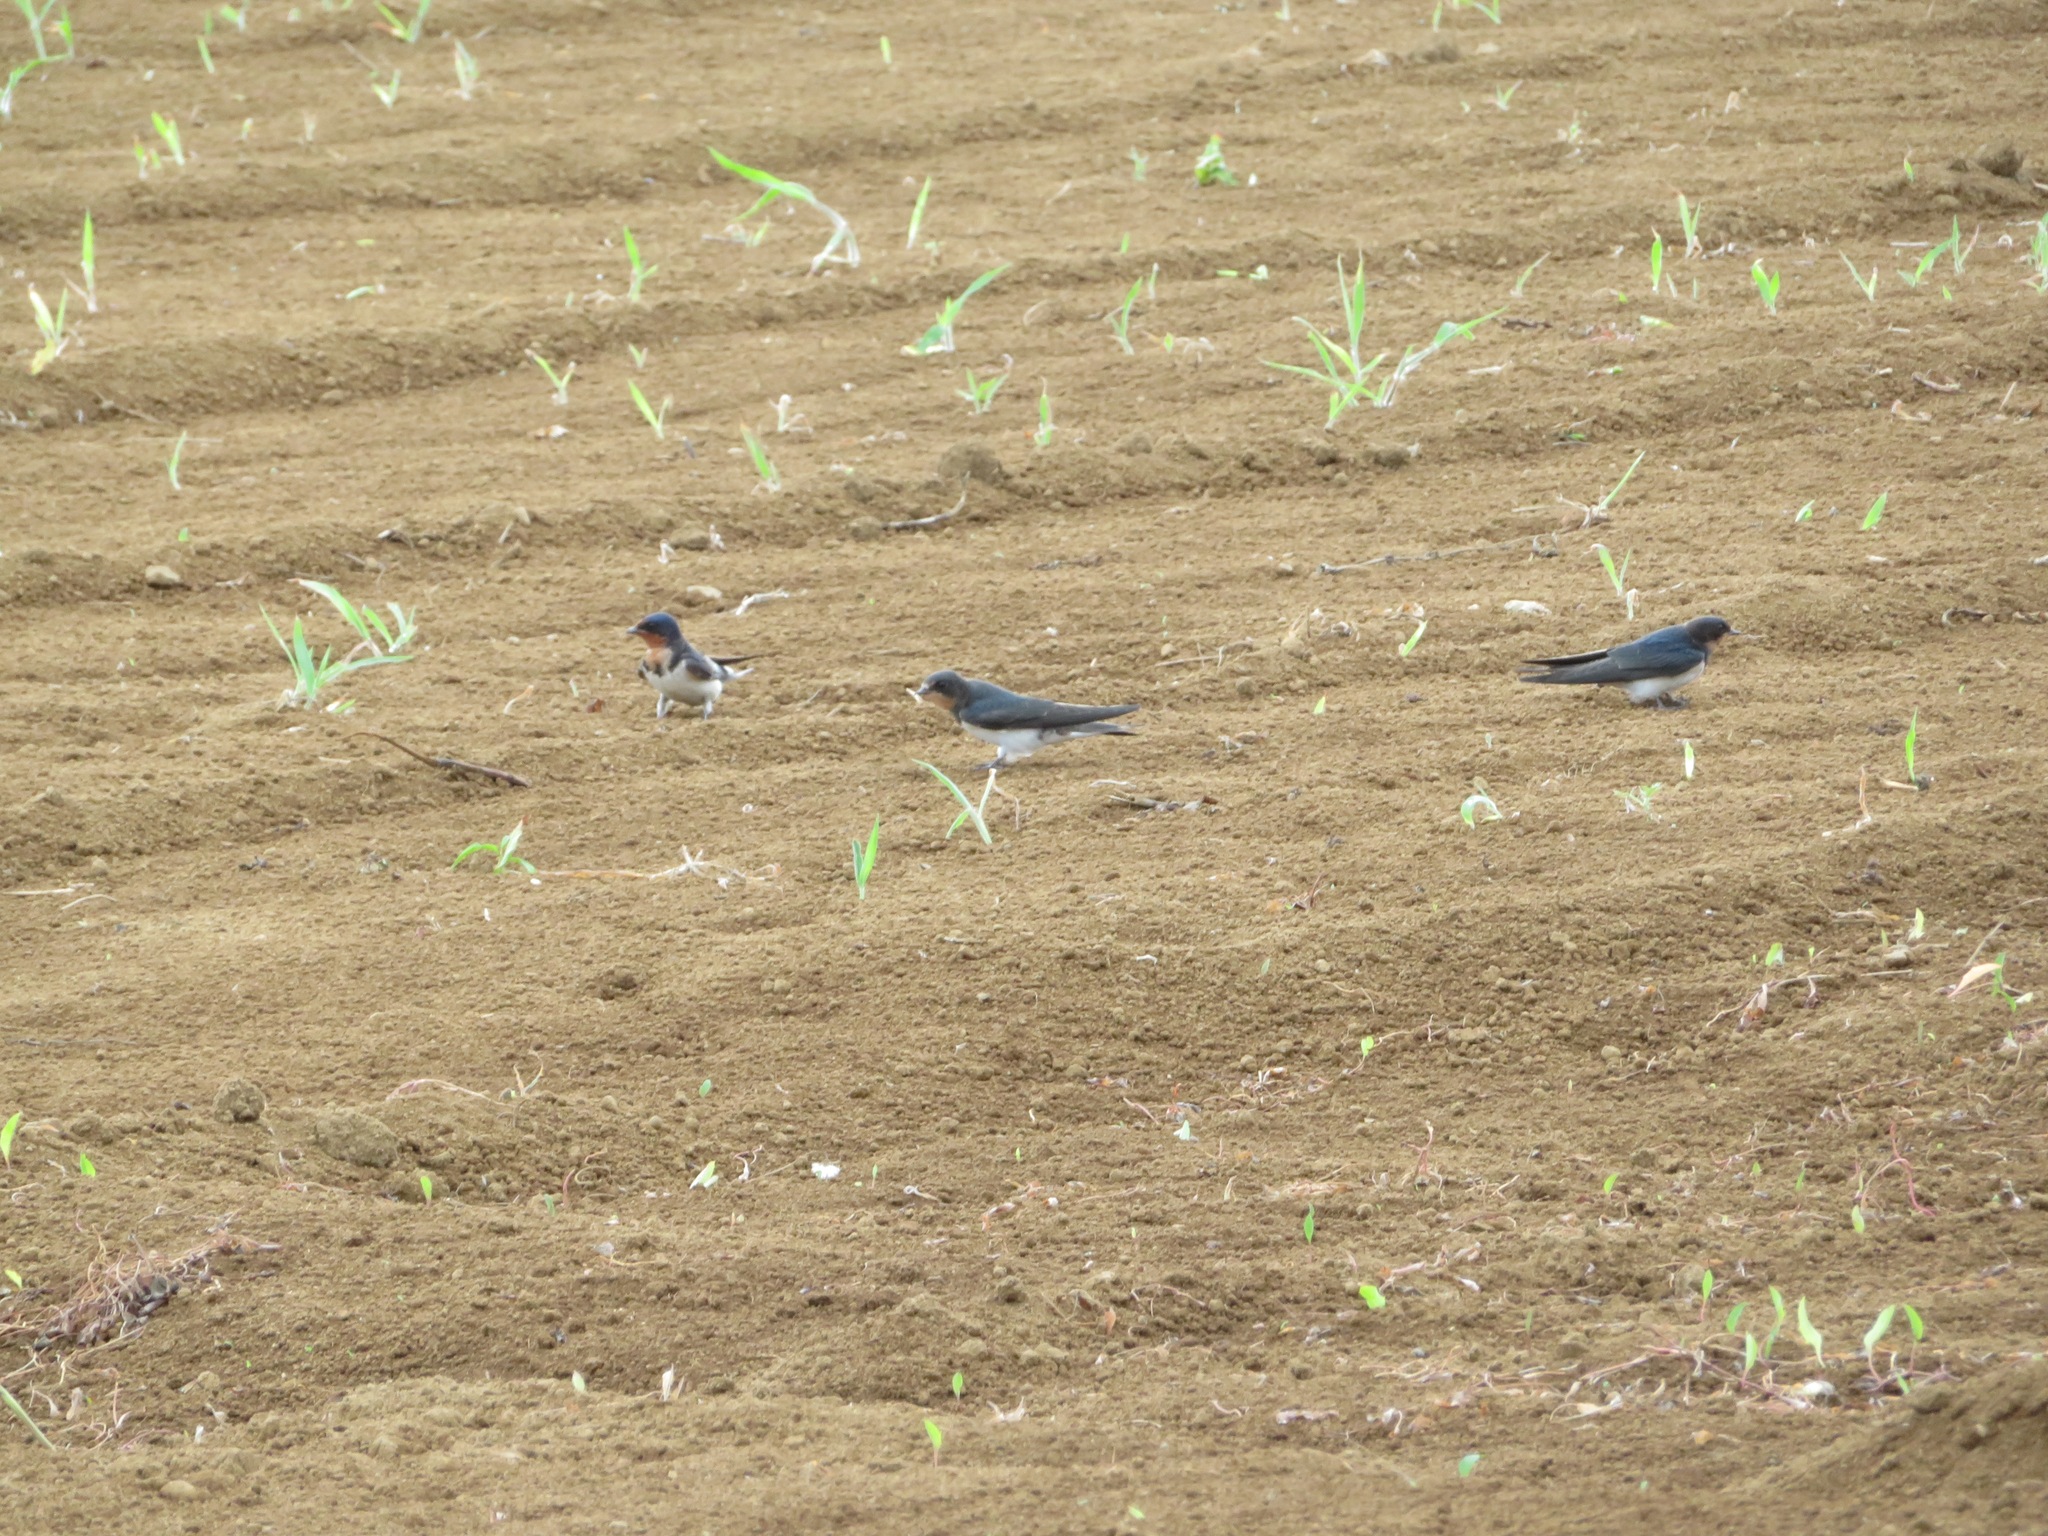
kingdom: Animalia
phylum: Chordata
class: Aves
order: Passeriformes
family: Hirundinidae
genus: Hirundo
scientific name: Hirundo rustica
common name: Barn swallow
